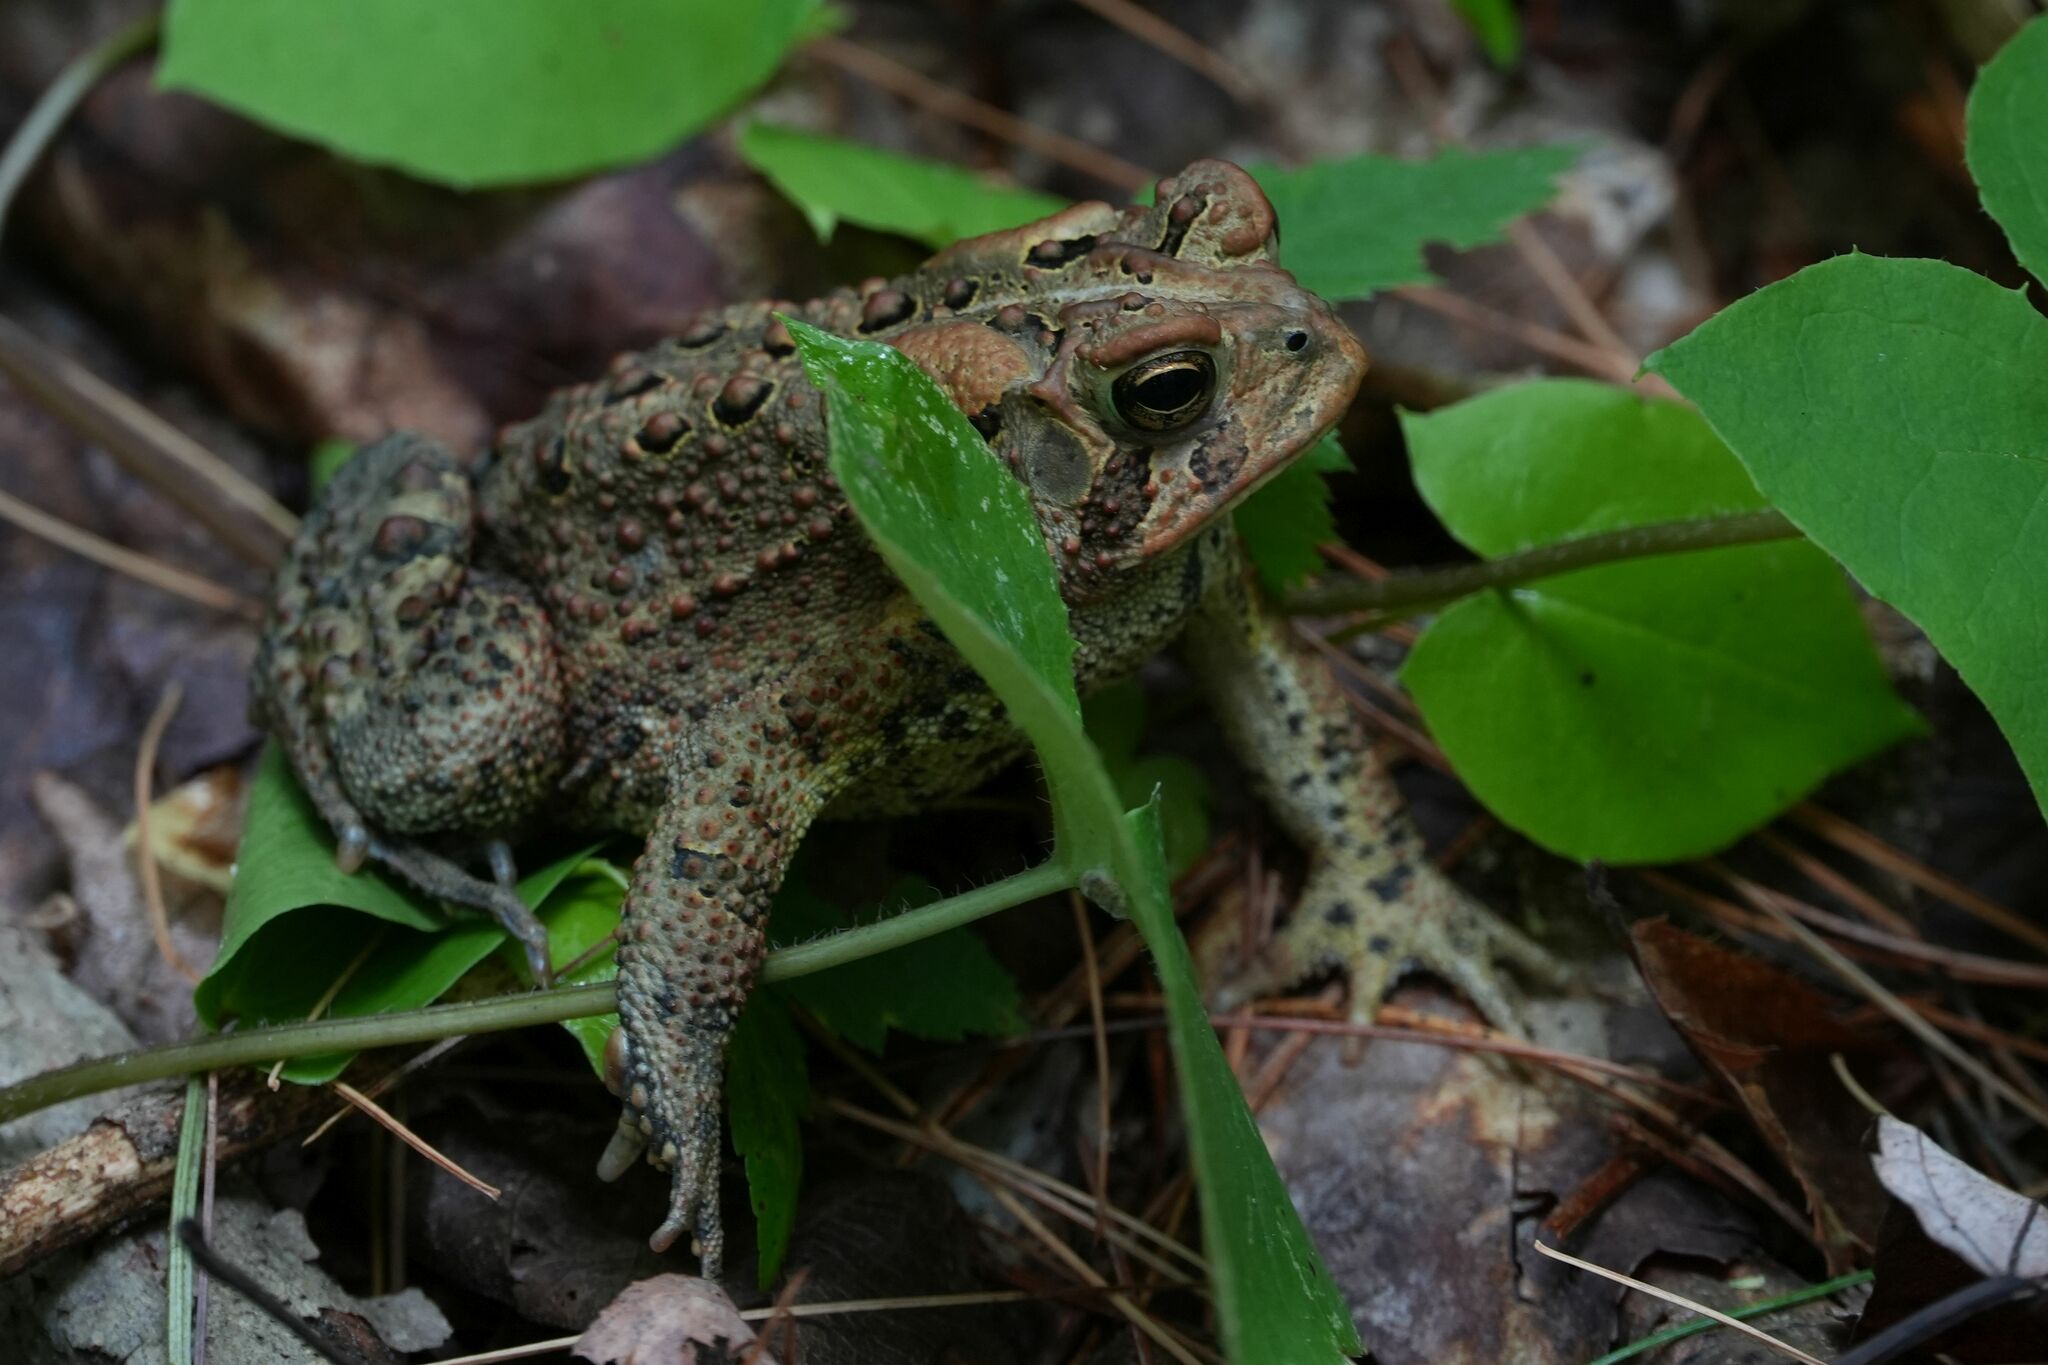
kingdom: Animalia
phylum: Chordata
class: Amphibia
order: Anura
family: Bufonidae
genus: Anaxyrus
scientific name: Anaxyrus americanus
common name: American toad
